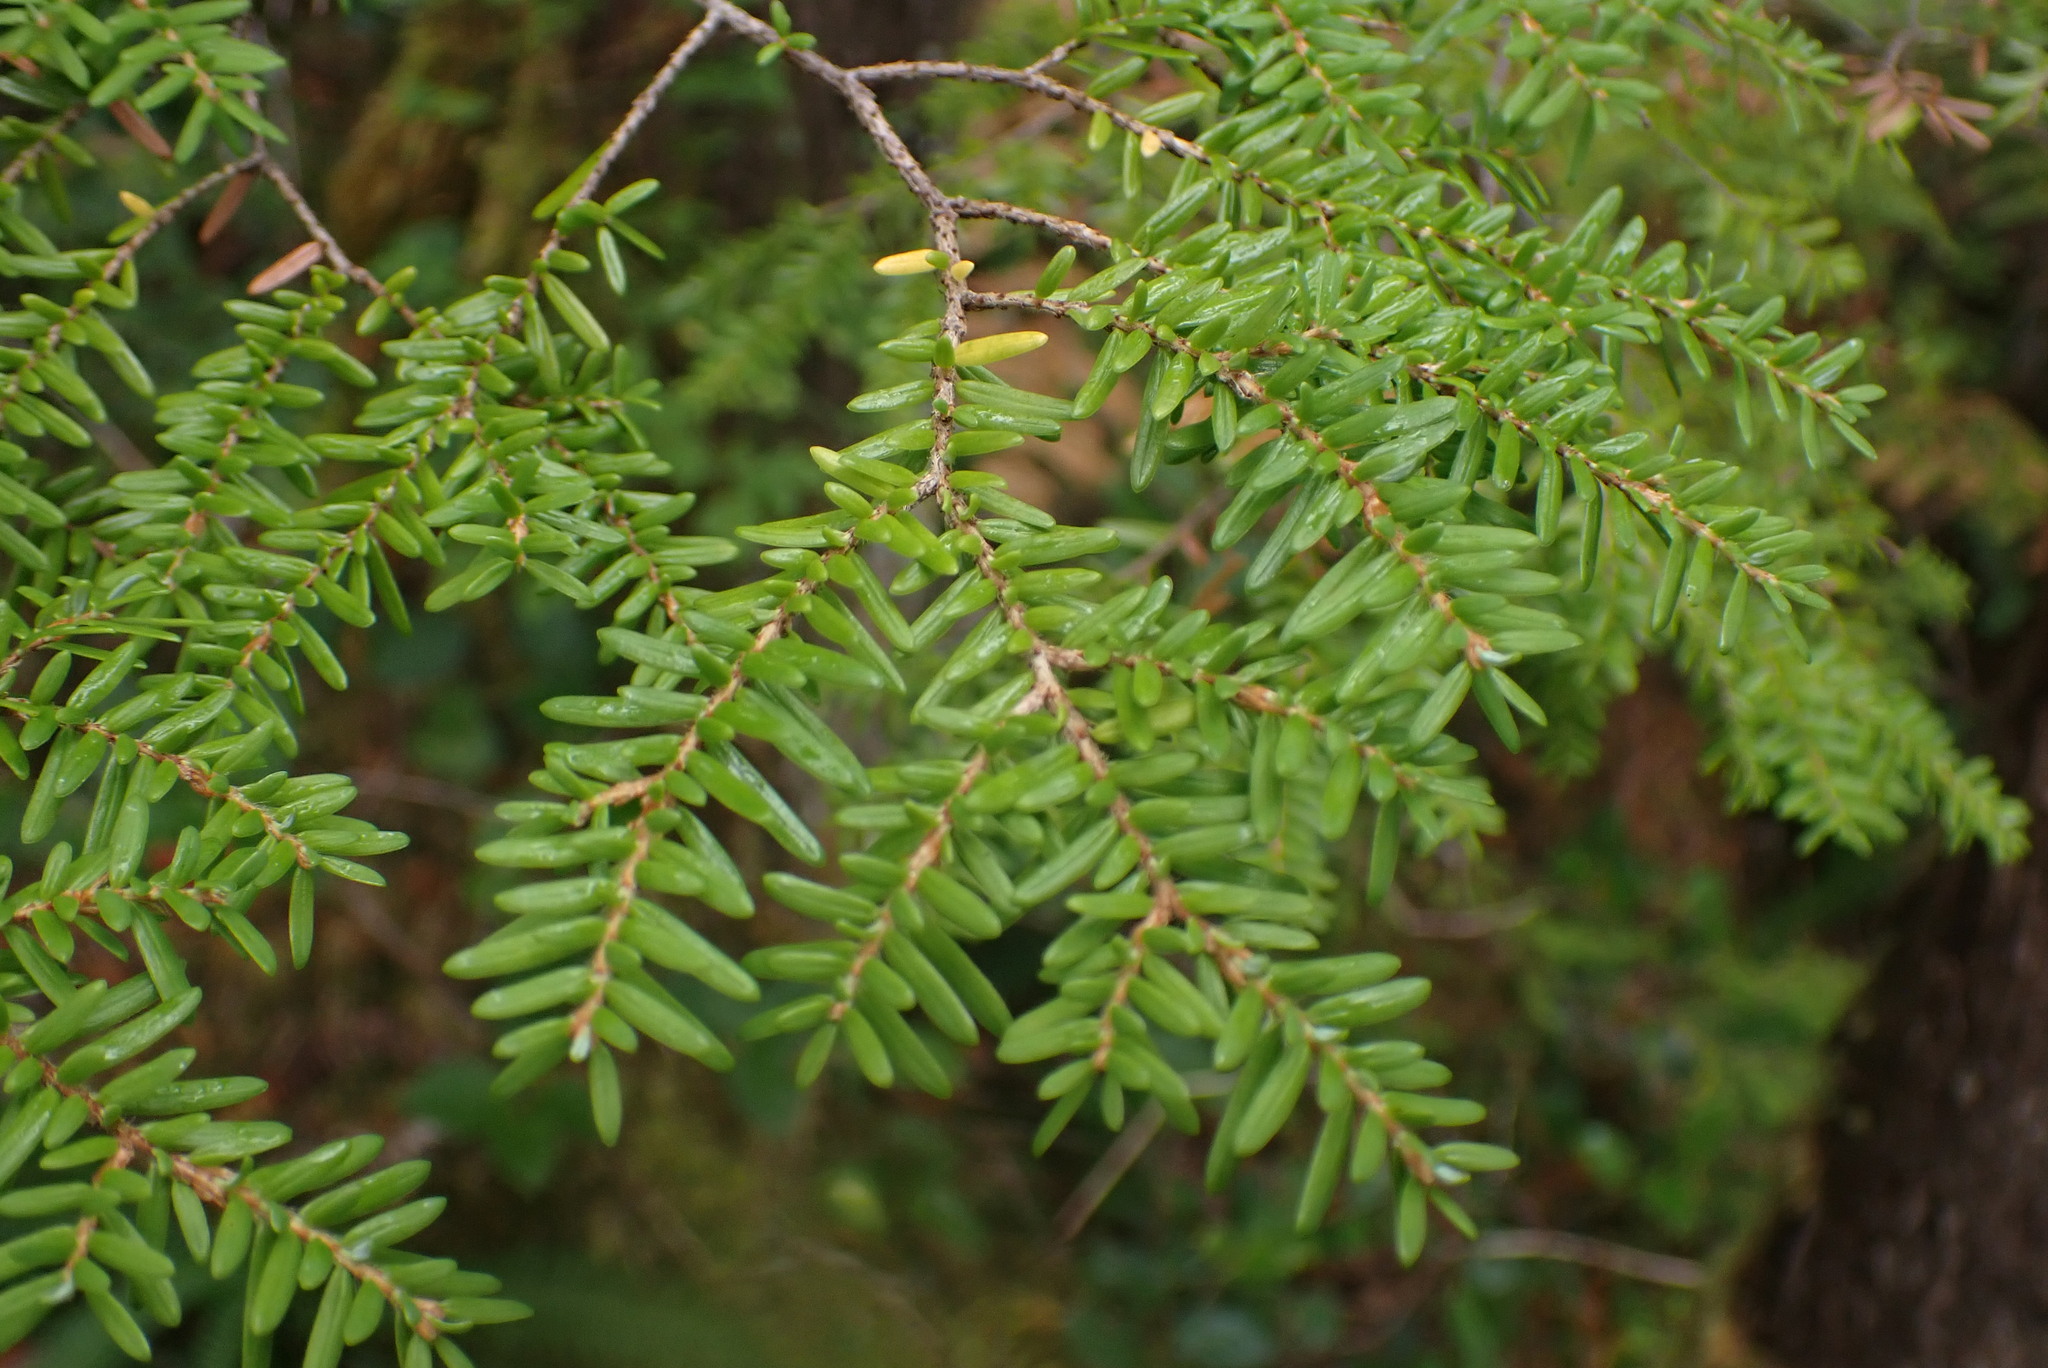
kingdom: Plantae
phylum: Tracheophyta
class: Pinopsida
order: Pinales
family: Pinaceae
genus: Tsuga
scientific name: Tsuga heterophylla
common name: Western hemlock
